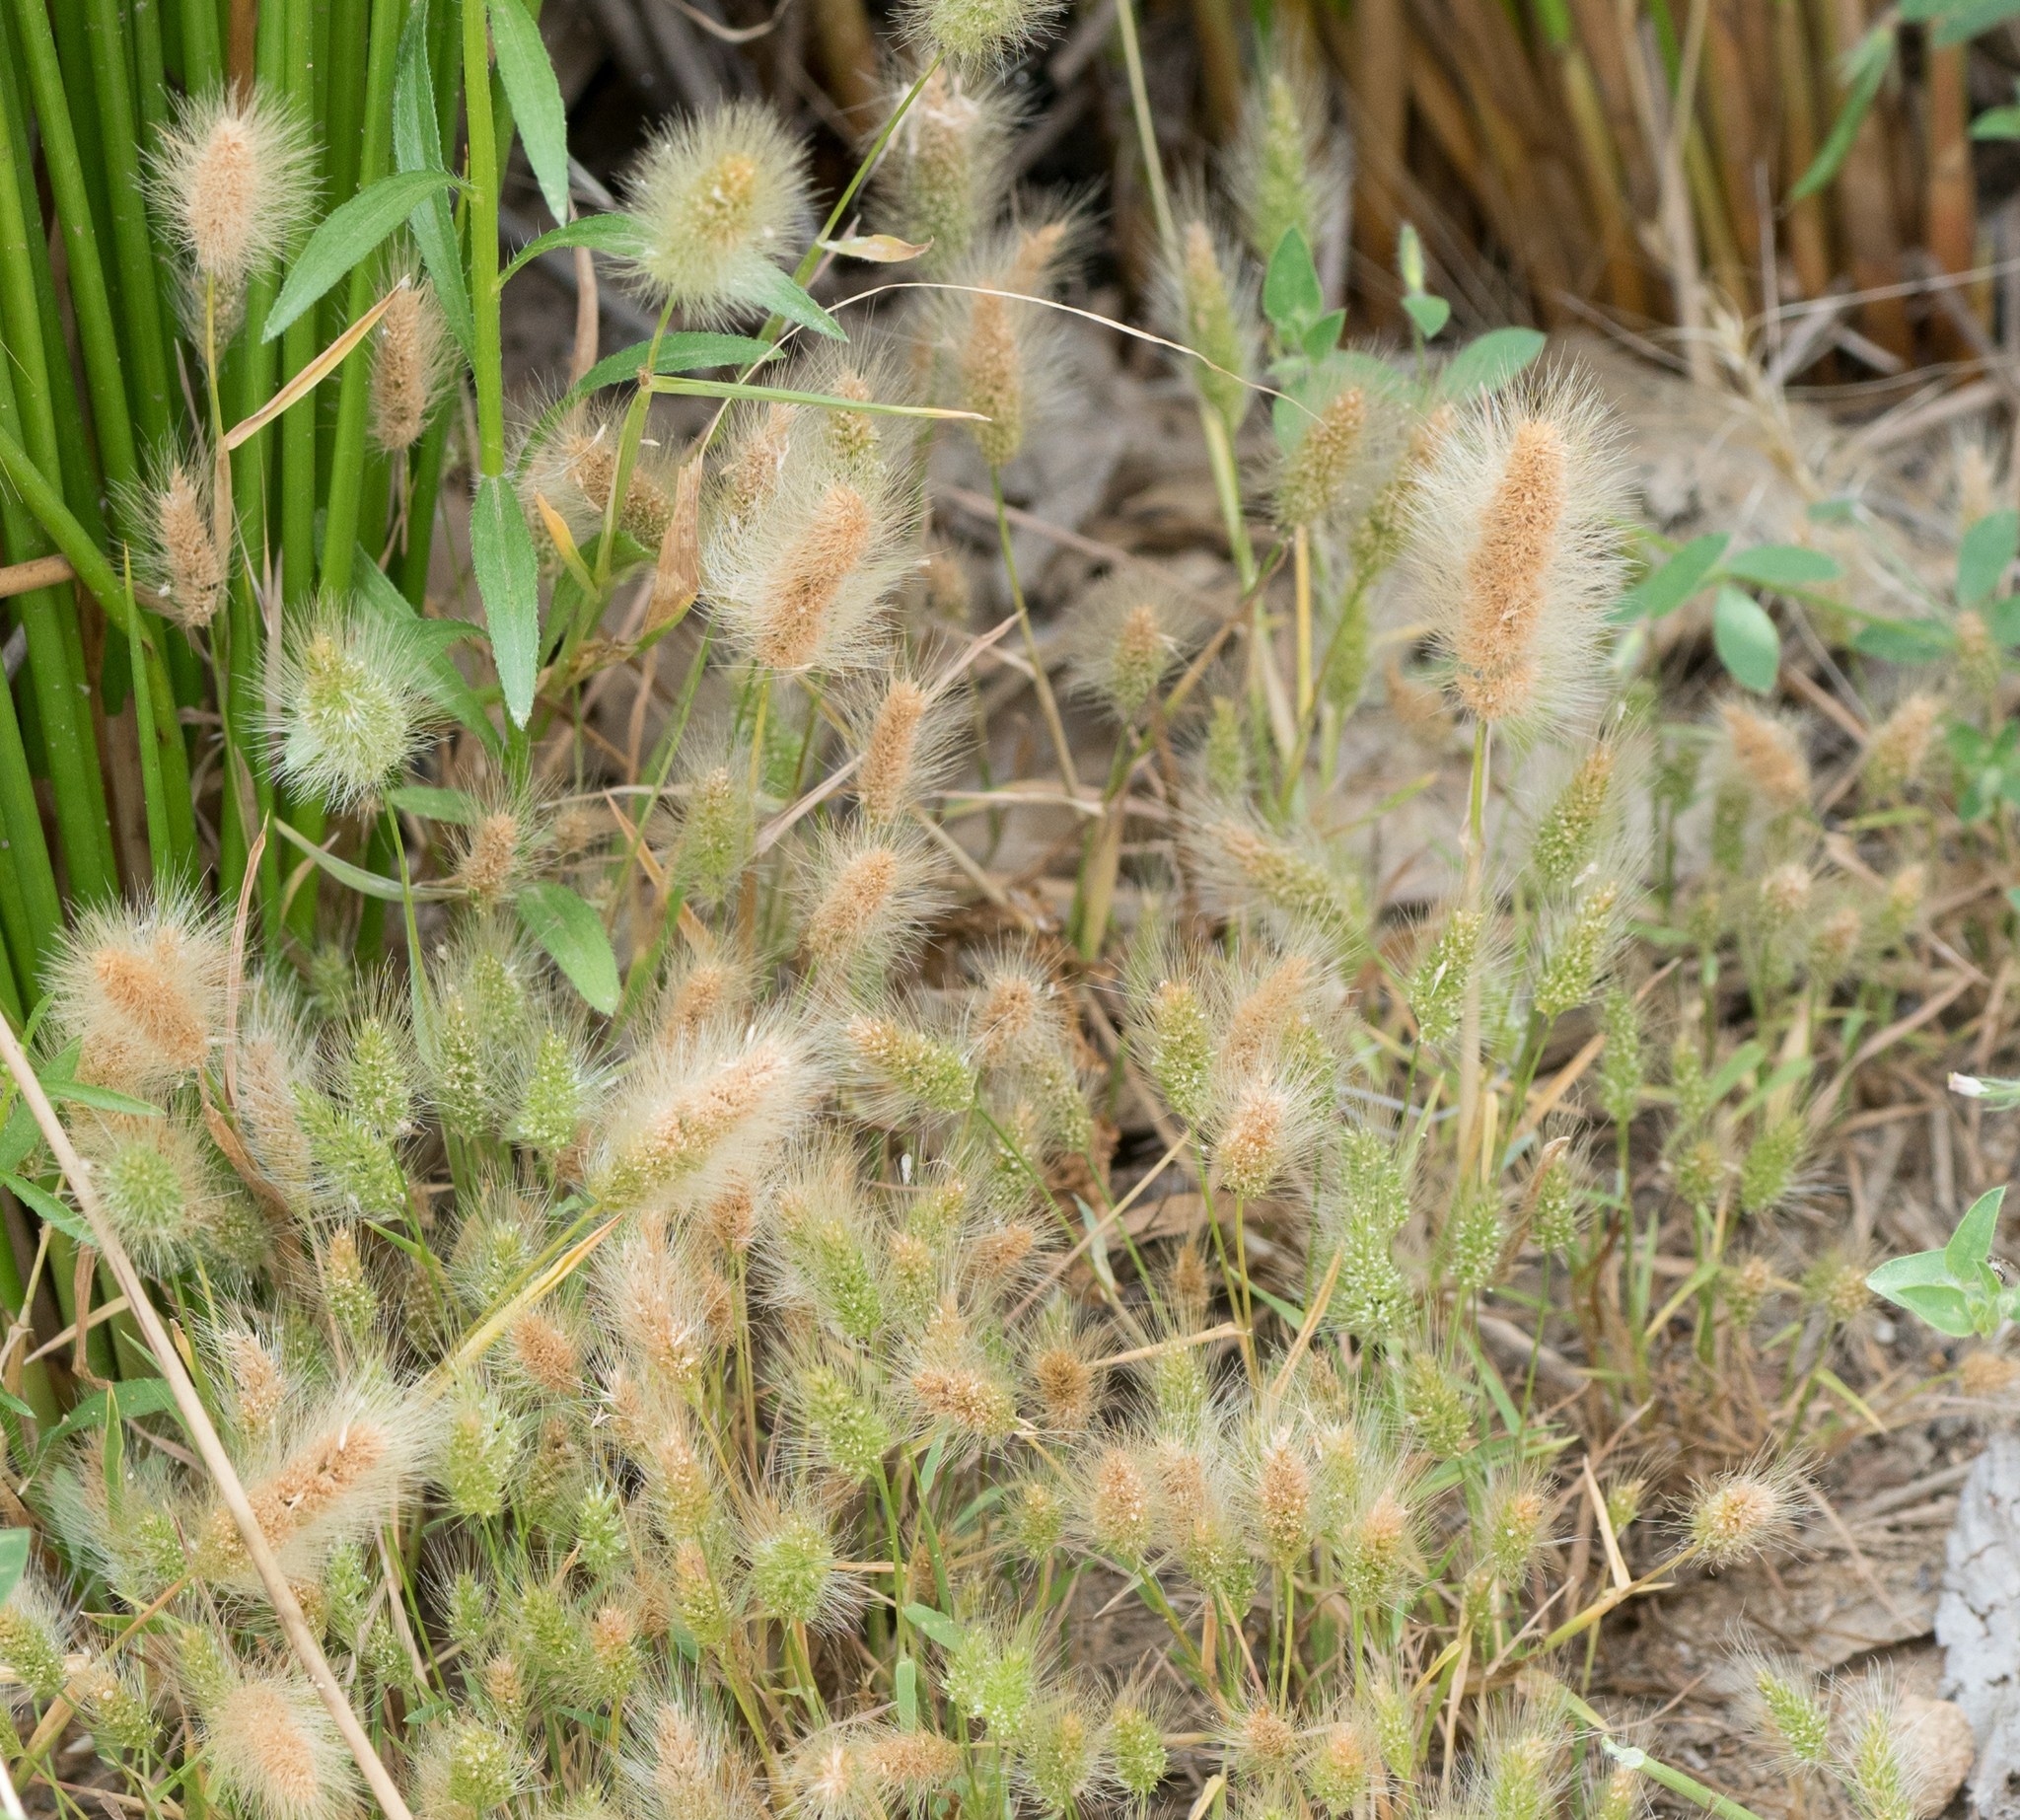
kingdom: Plantae
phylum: Tracheophyta
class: Liliopsida
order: Poales
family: Poaceae
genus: Polypogon
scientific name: Polypogon monspeliensis
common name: Annual rabbitsfoot grass
